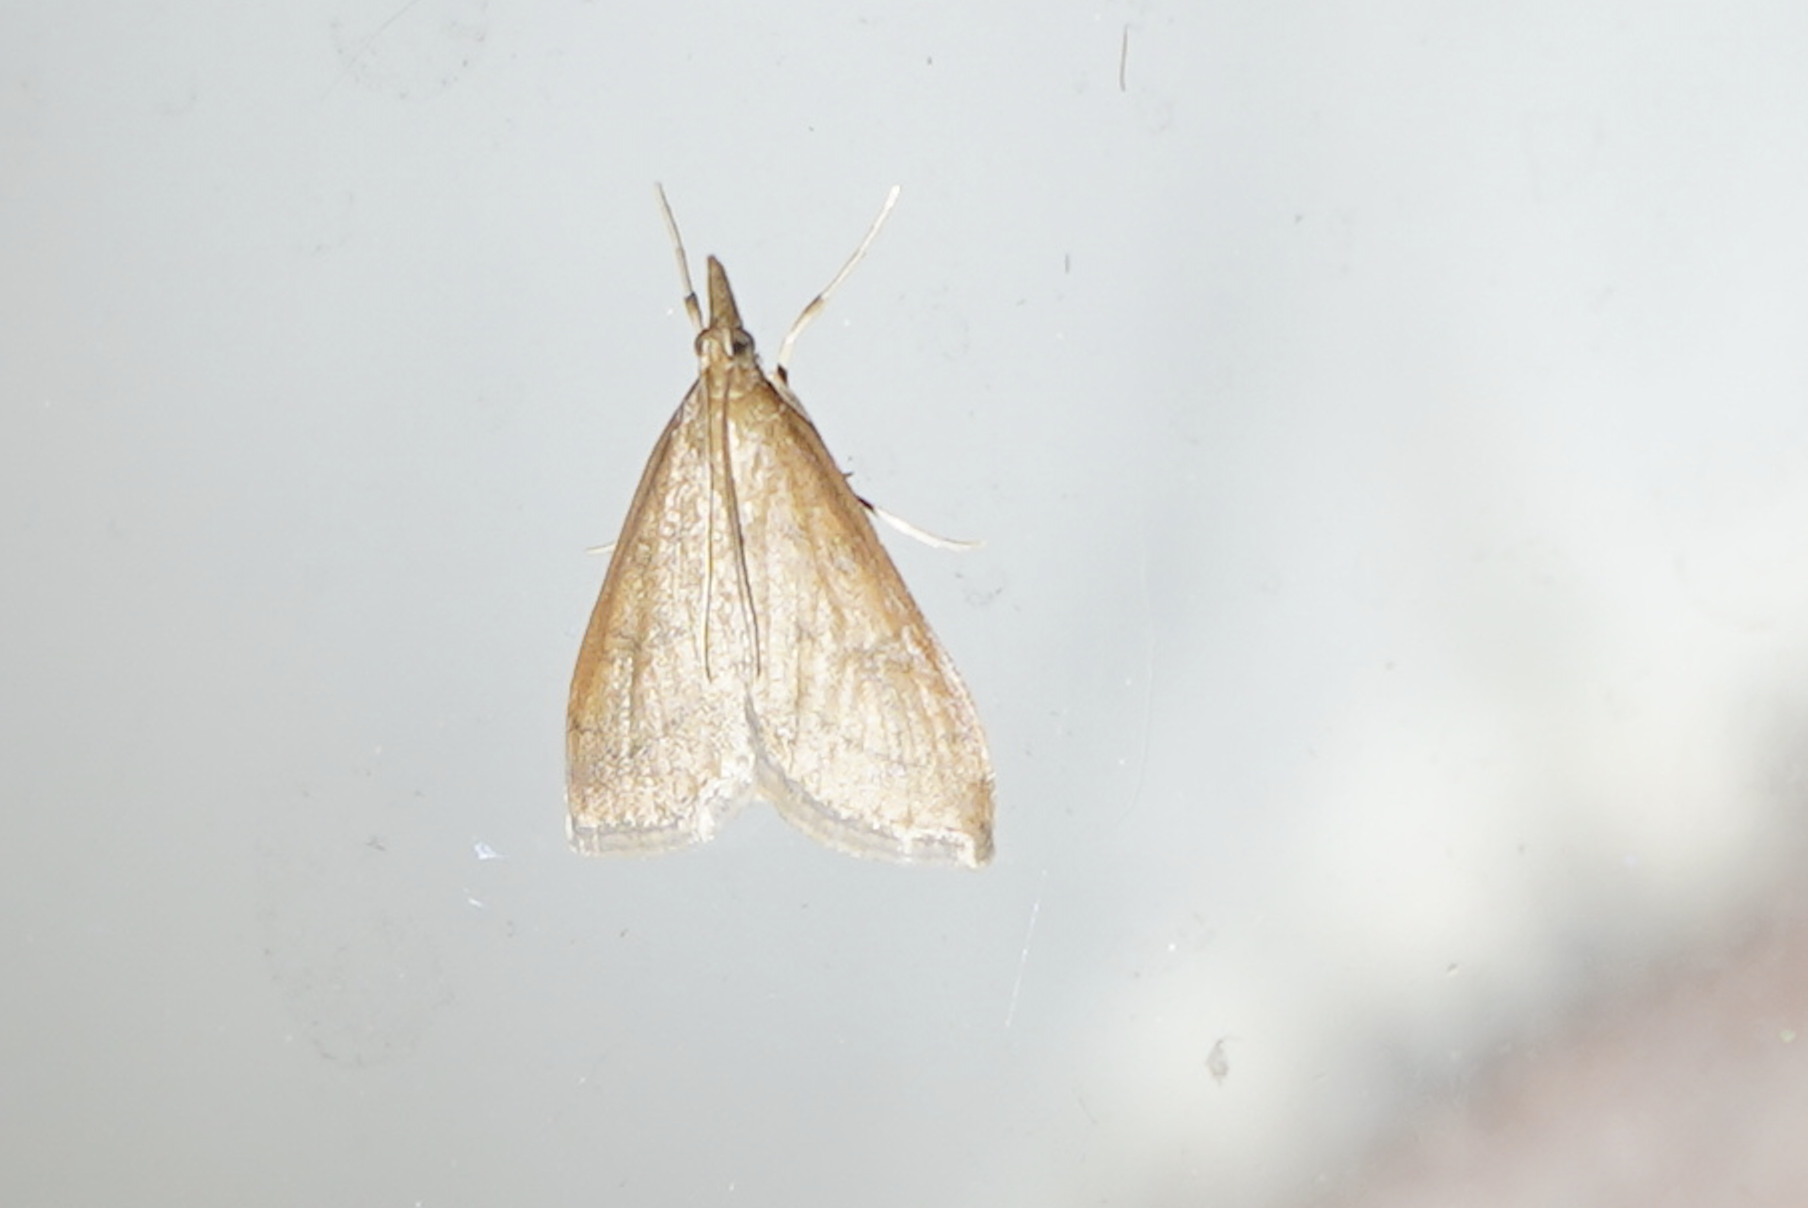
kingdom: Animalia
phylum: Arthropoda
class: Insecta
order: Lepidoptera
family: Crambidae
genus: Udea
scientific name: Udea rubigalis
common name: Celery leaftier moth
